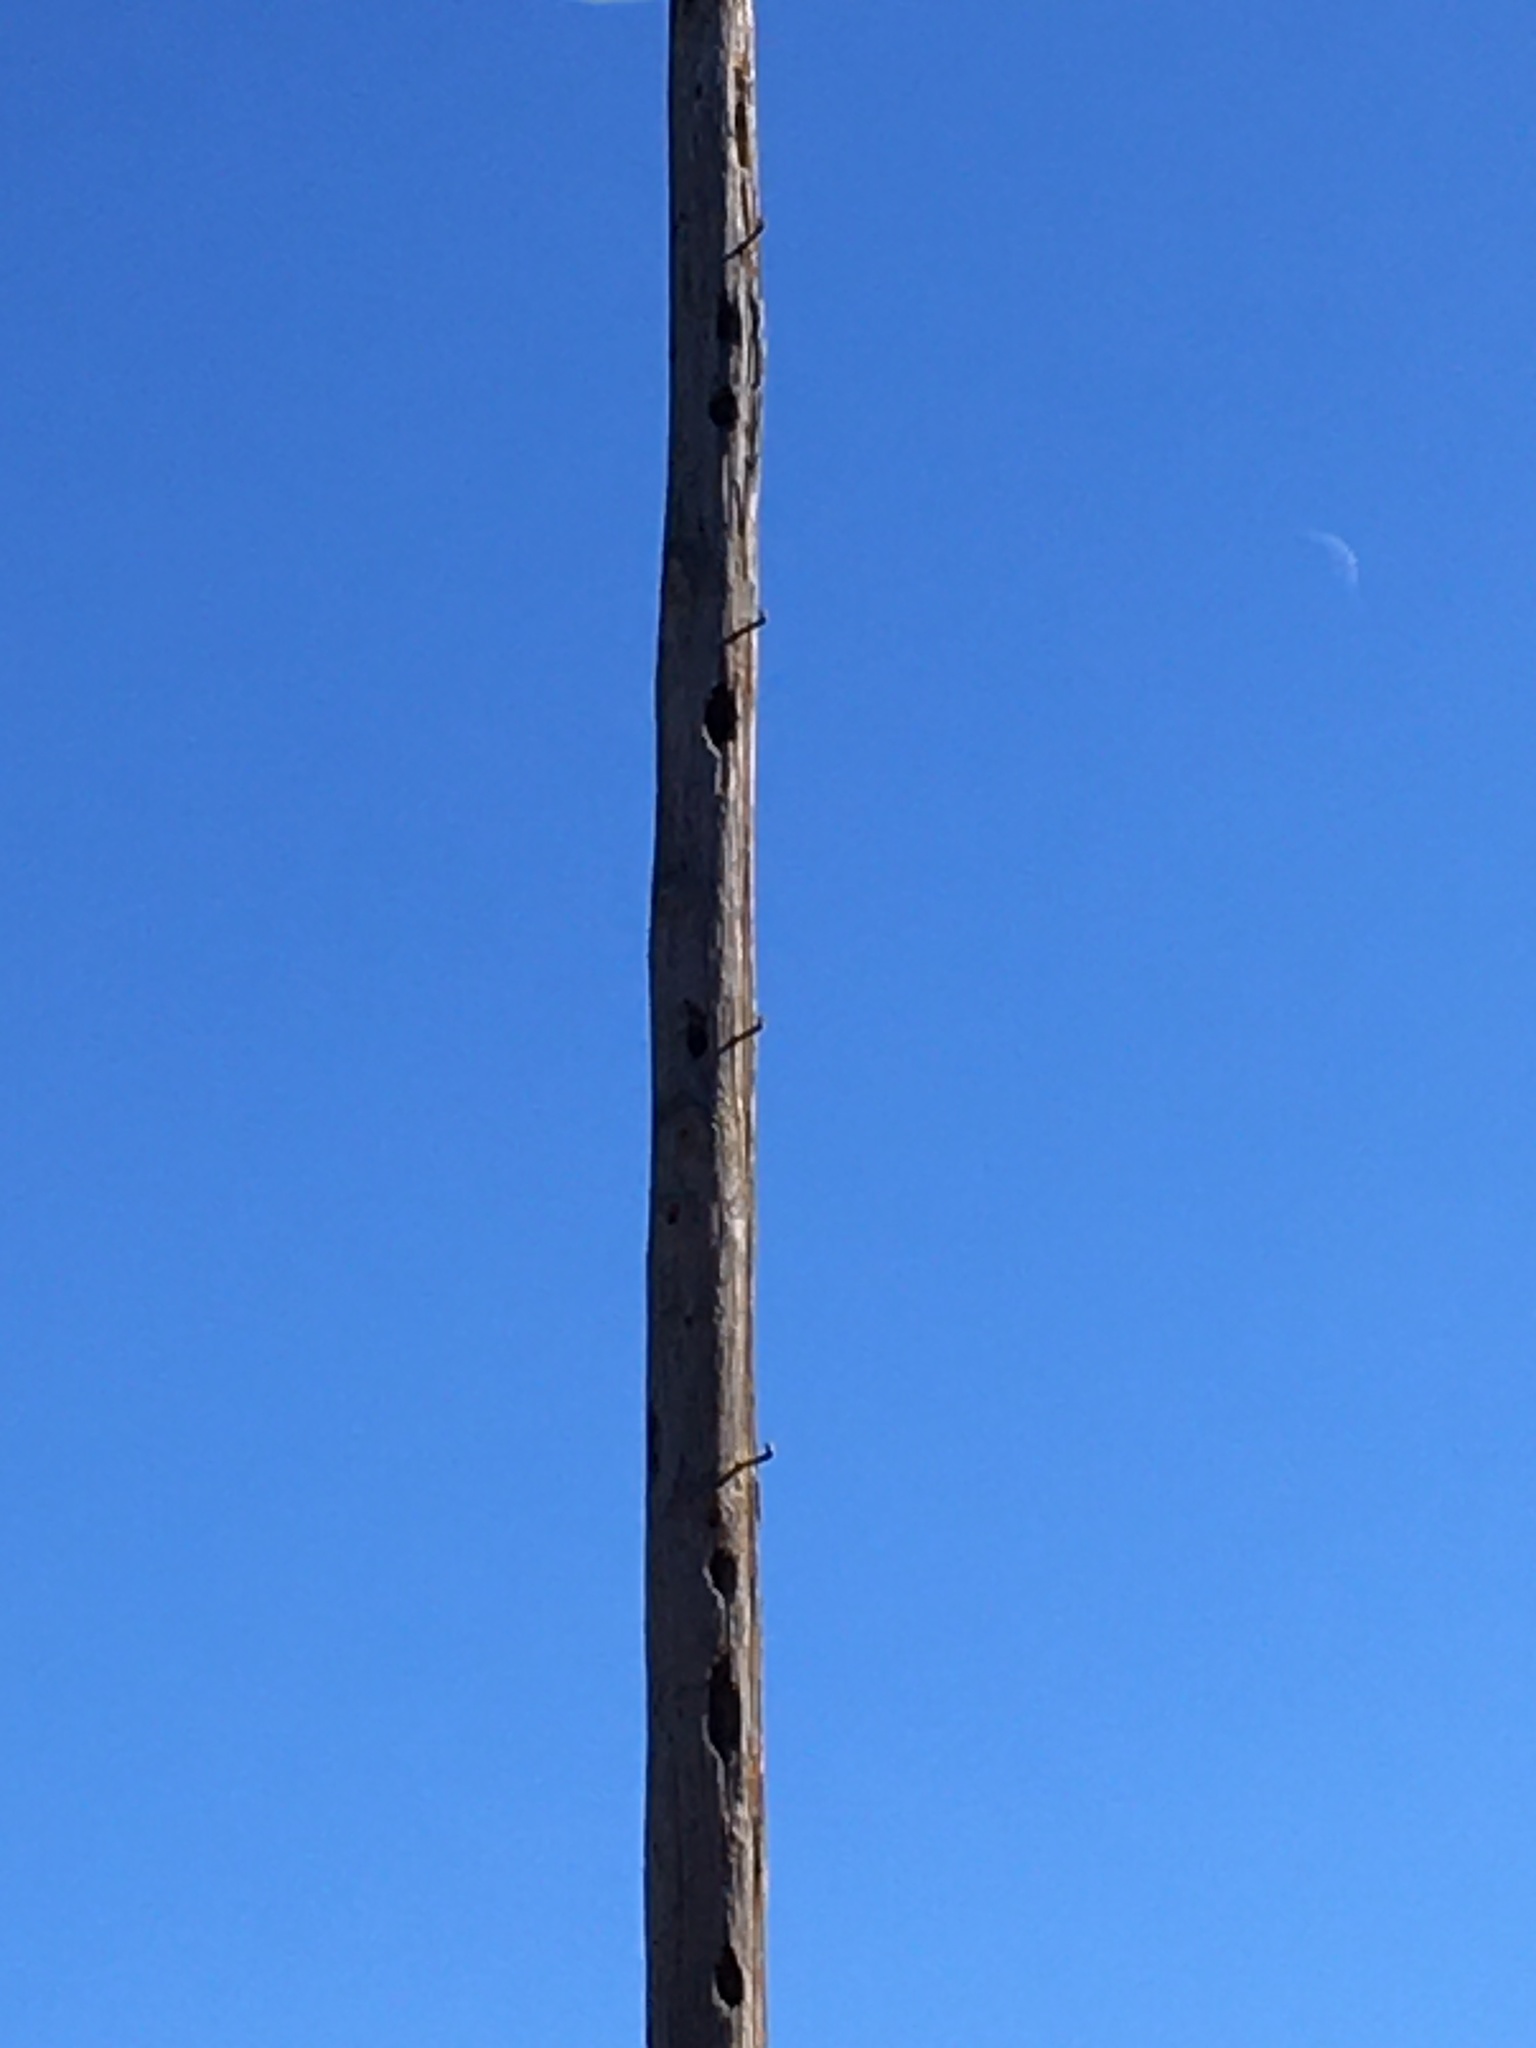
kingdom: Animalia
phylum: Chordata
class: Aves
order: Piciformes
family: Picidae
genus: Dryocopus
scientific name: Dryocopus pileatus
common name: Pileated woodpecker
